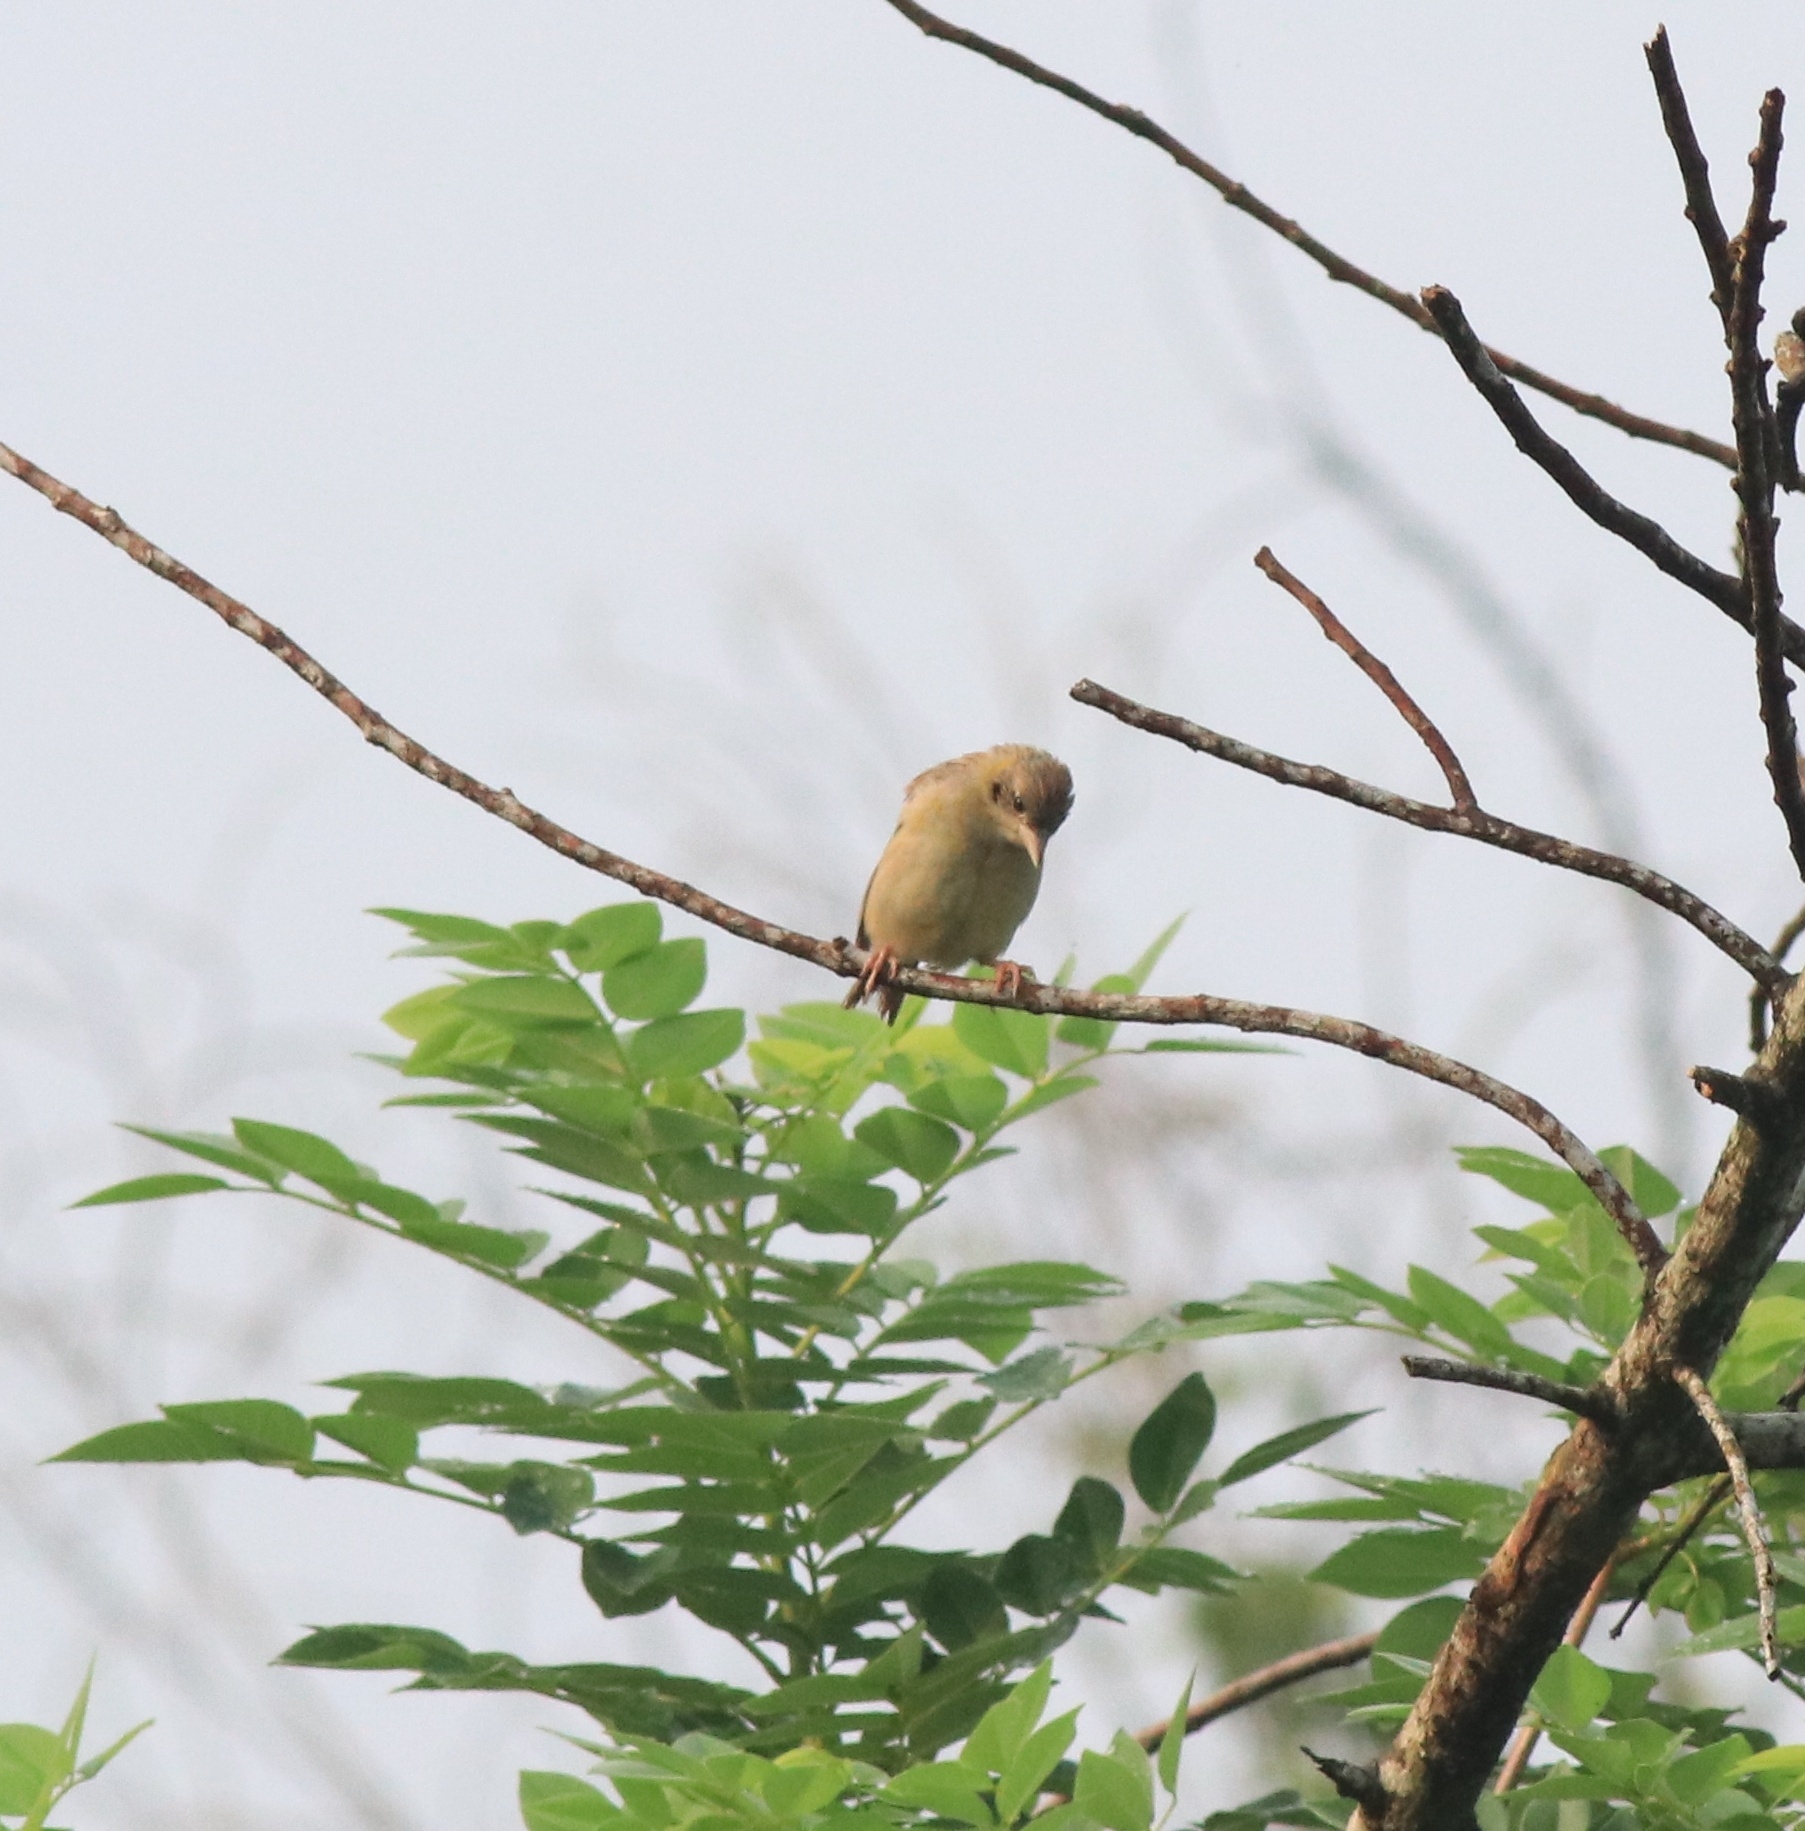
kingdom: Animalia
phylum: Chordata
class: Aves
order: Passeriformes
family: Emberizidae
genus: Emberiza
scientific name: Emberiza melanocephala
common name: Black-headed bunting
